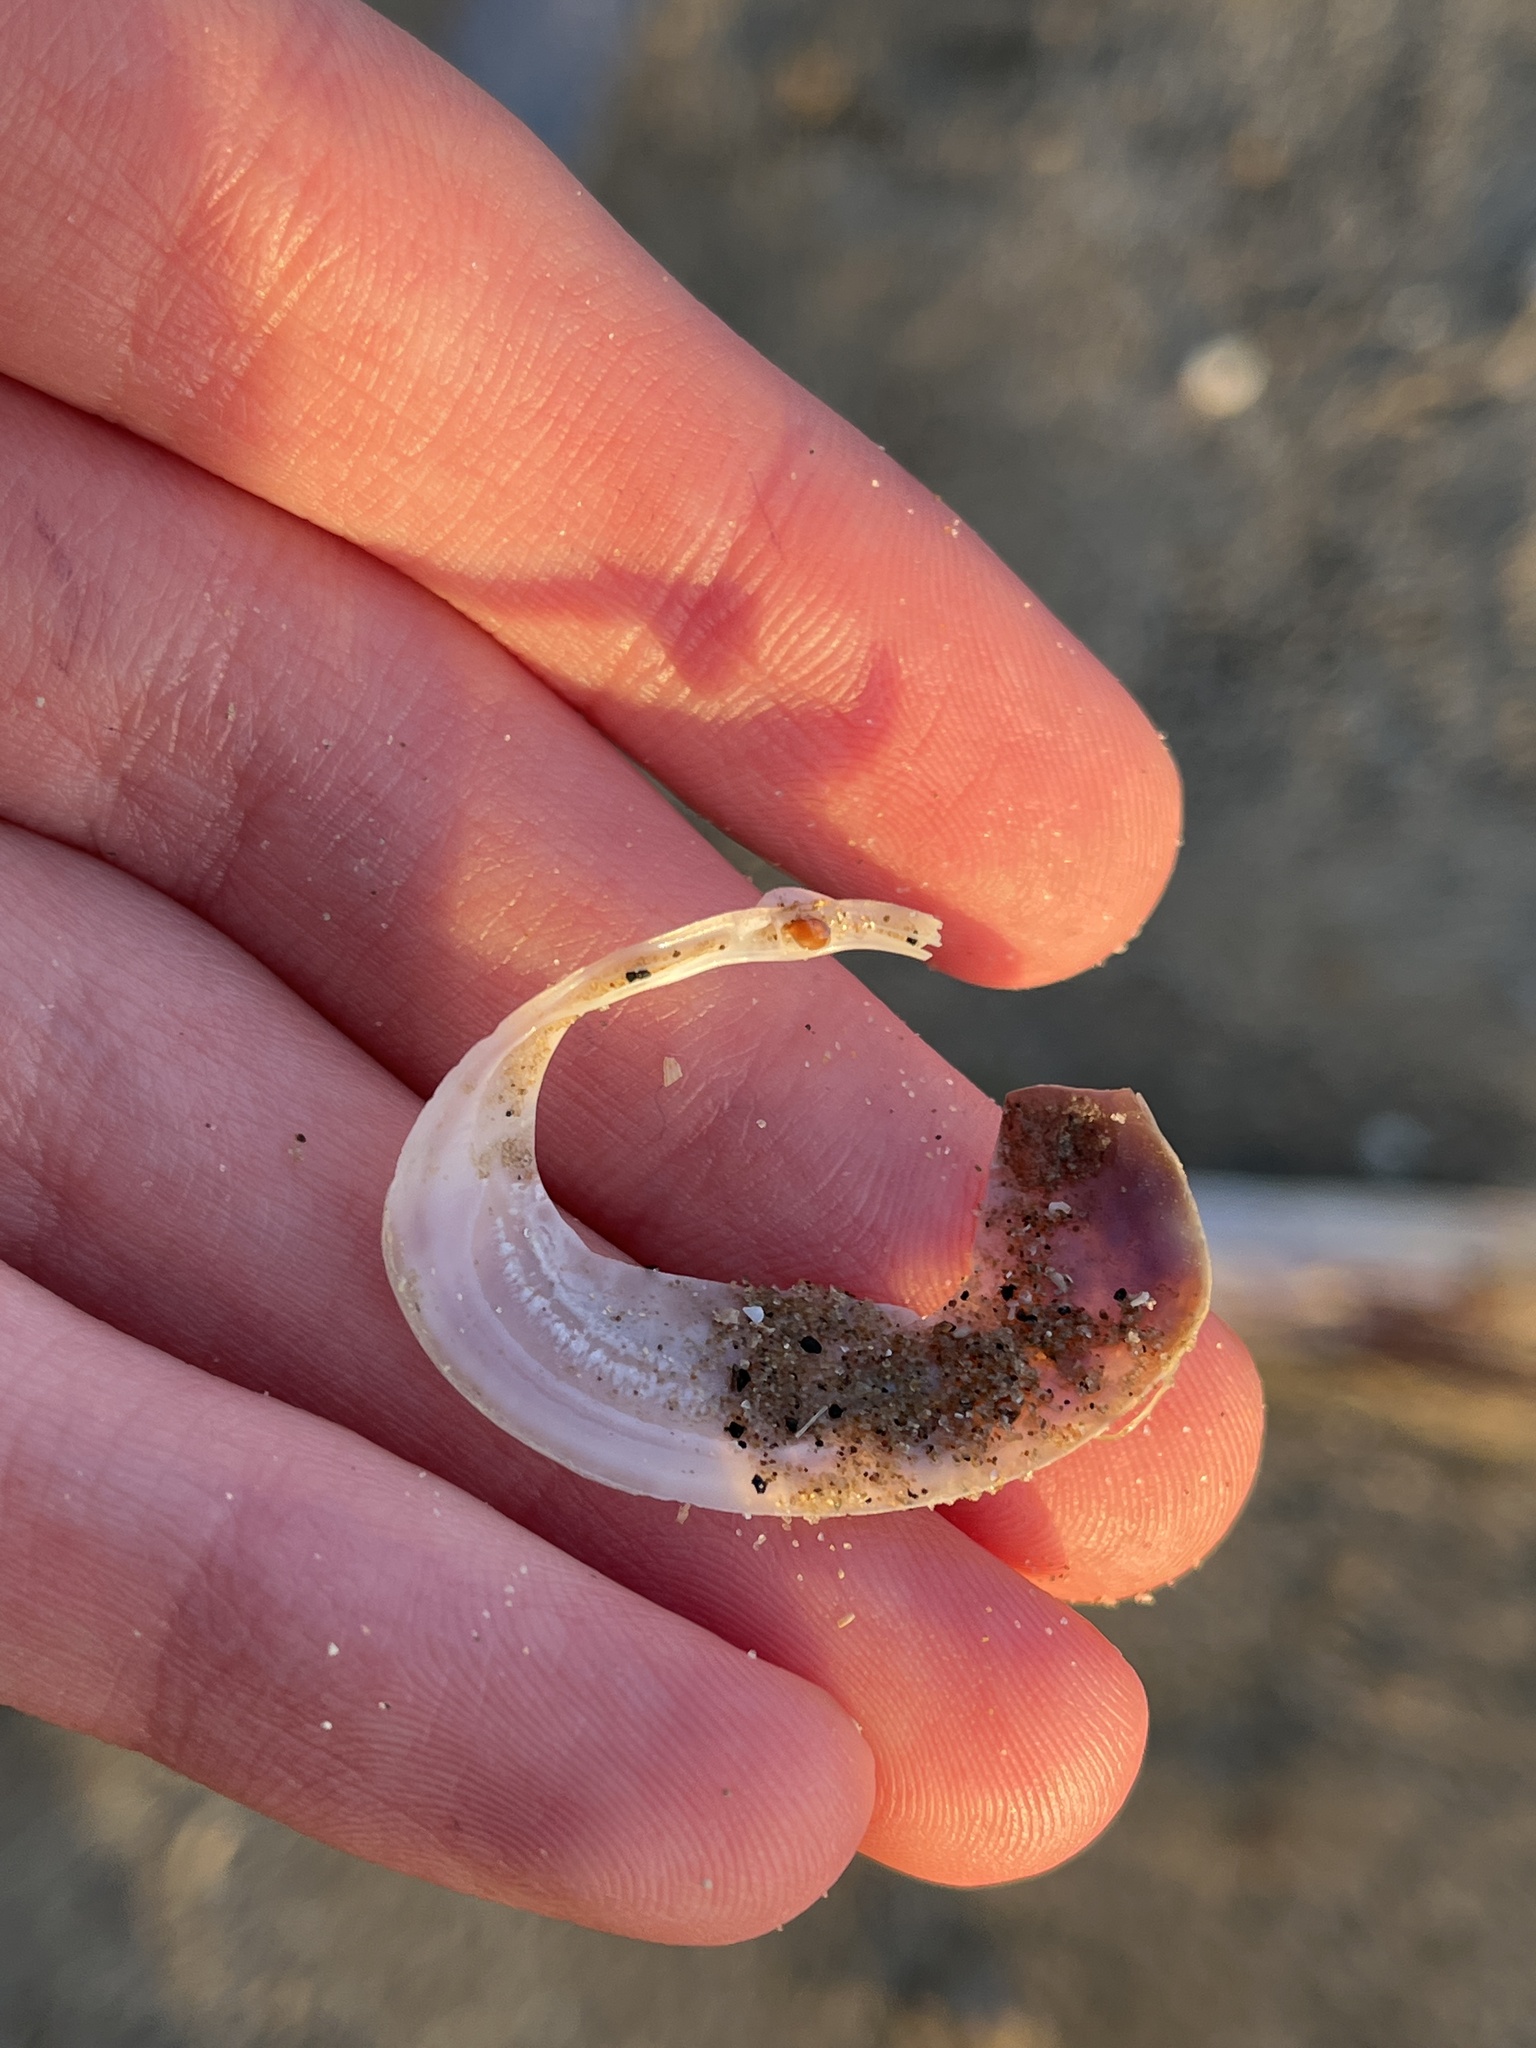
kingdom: Animalia
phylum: Mollusca
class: Bivalvia
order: Venerida
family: Mactridae
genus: Mactra
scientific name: Mactra stultorum
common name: Rayed trough shell
